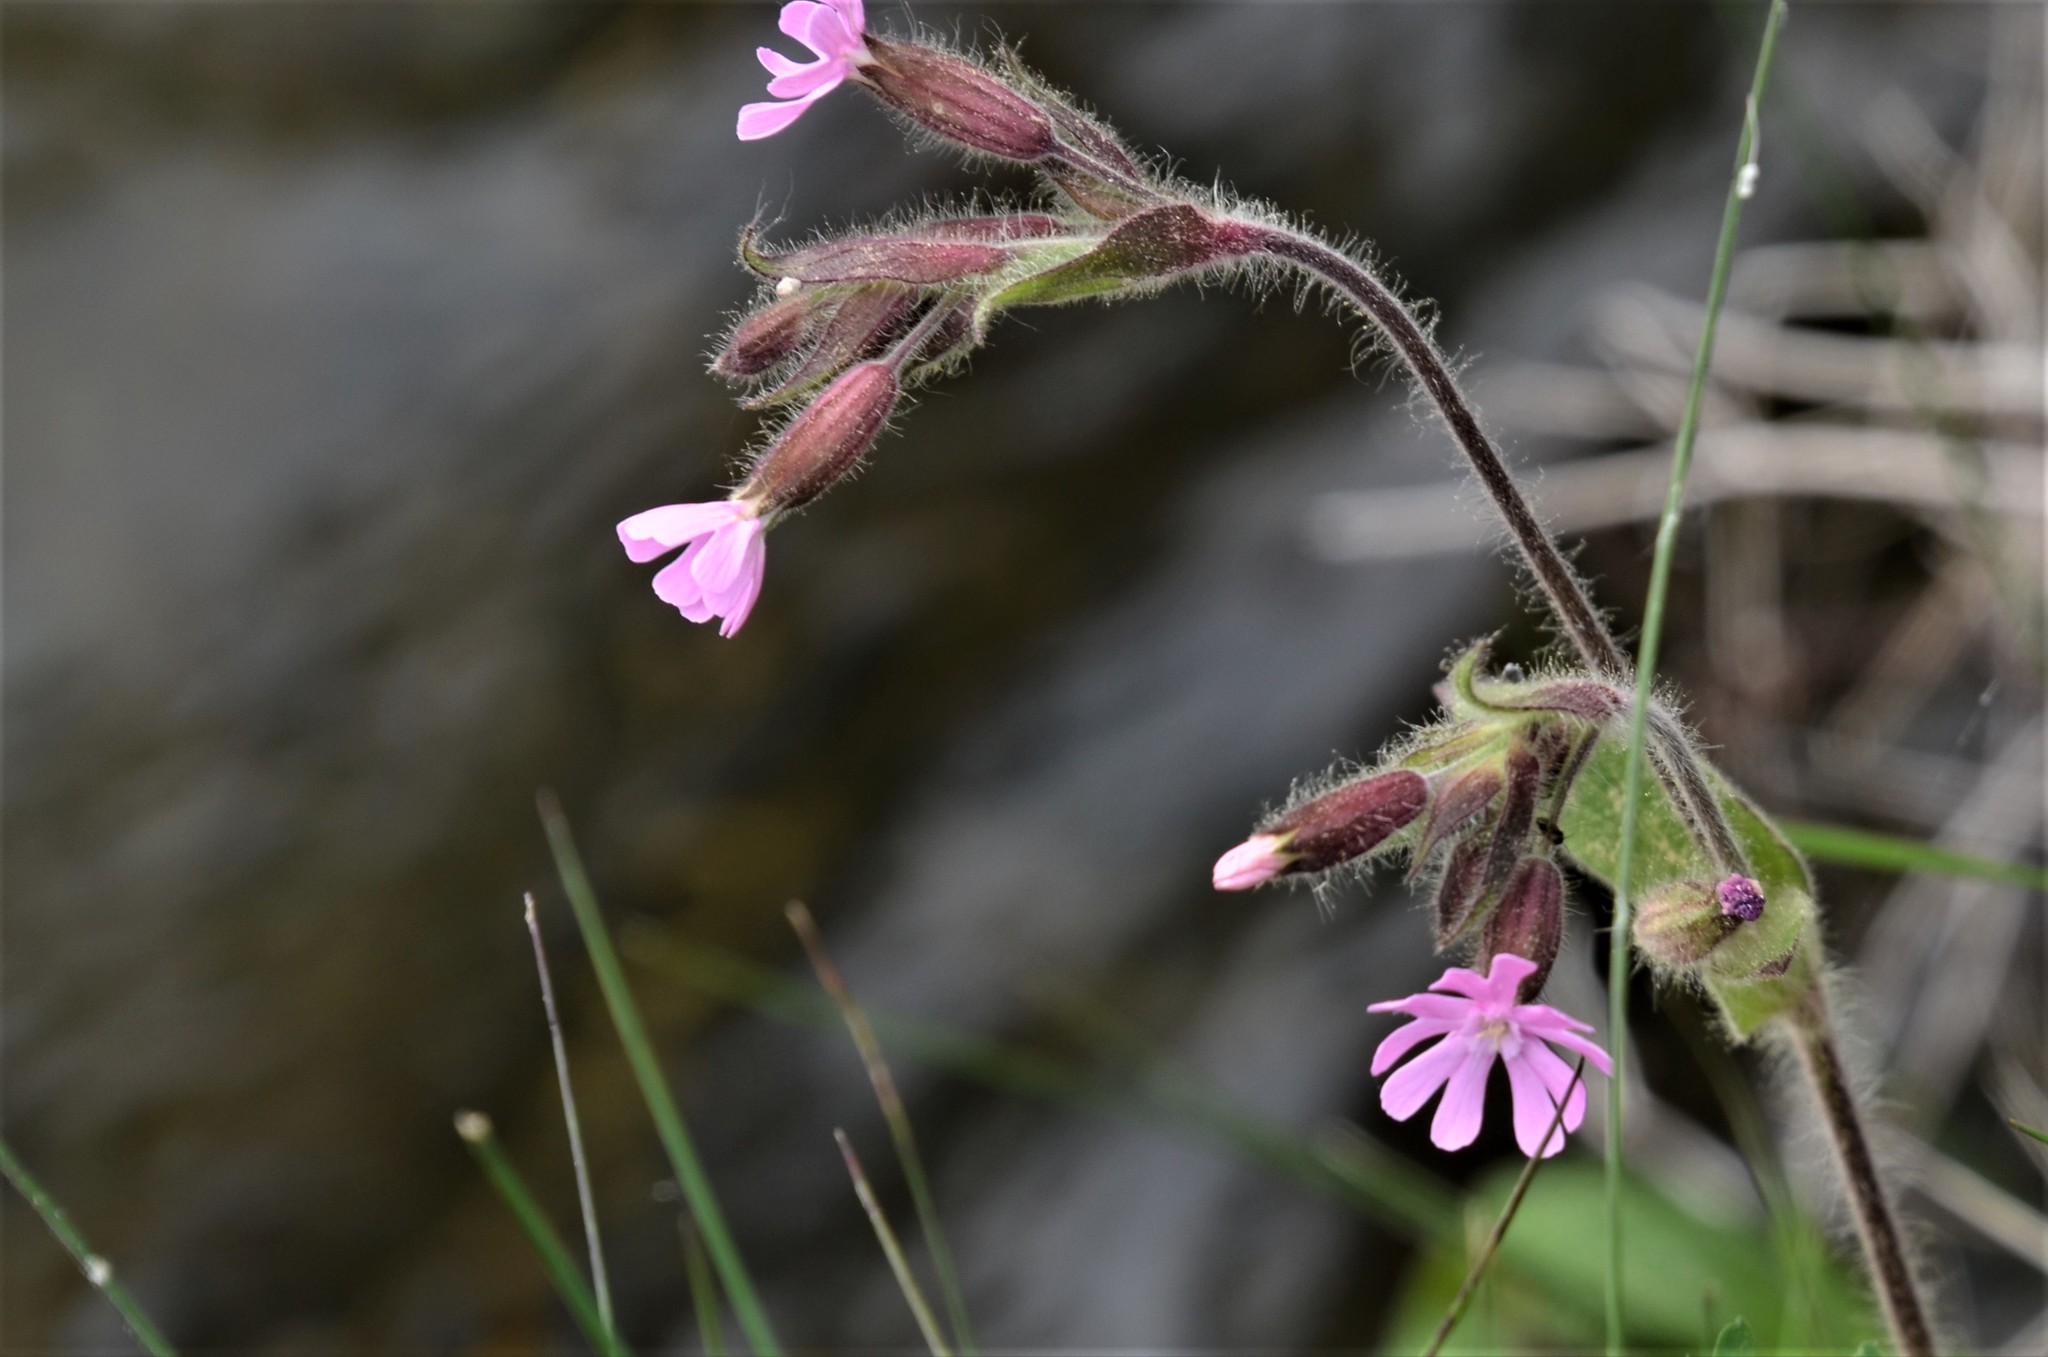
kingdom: Plantae
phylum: Tracheophyta
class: Magnoliopsida
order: Caryophyllales
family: Caryophyllaceae
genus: Silene
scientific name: Silene dioica
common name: Red campion
